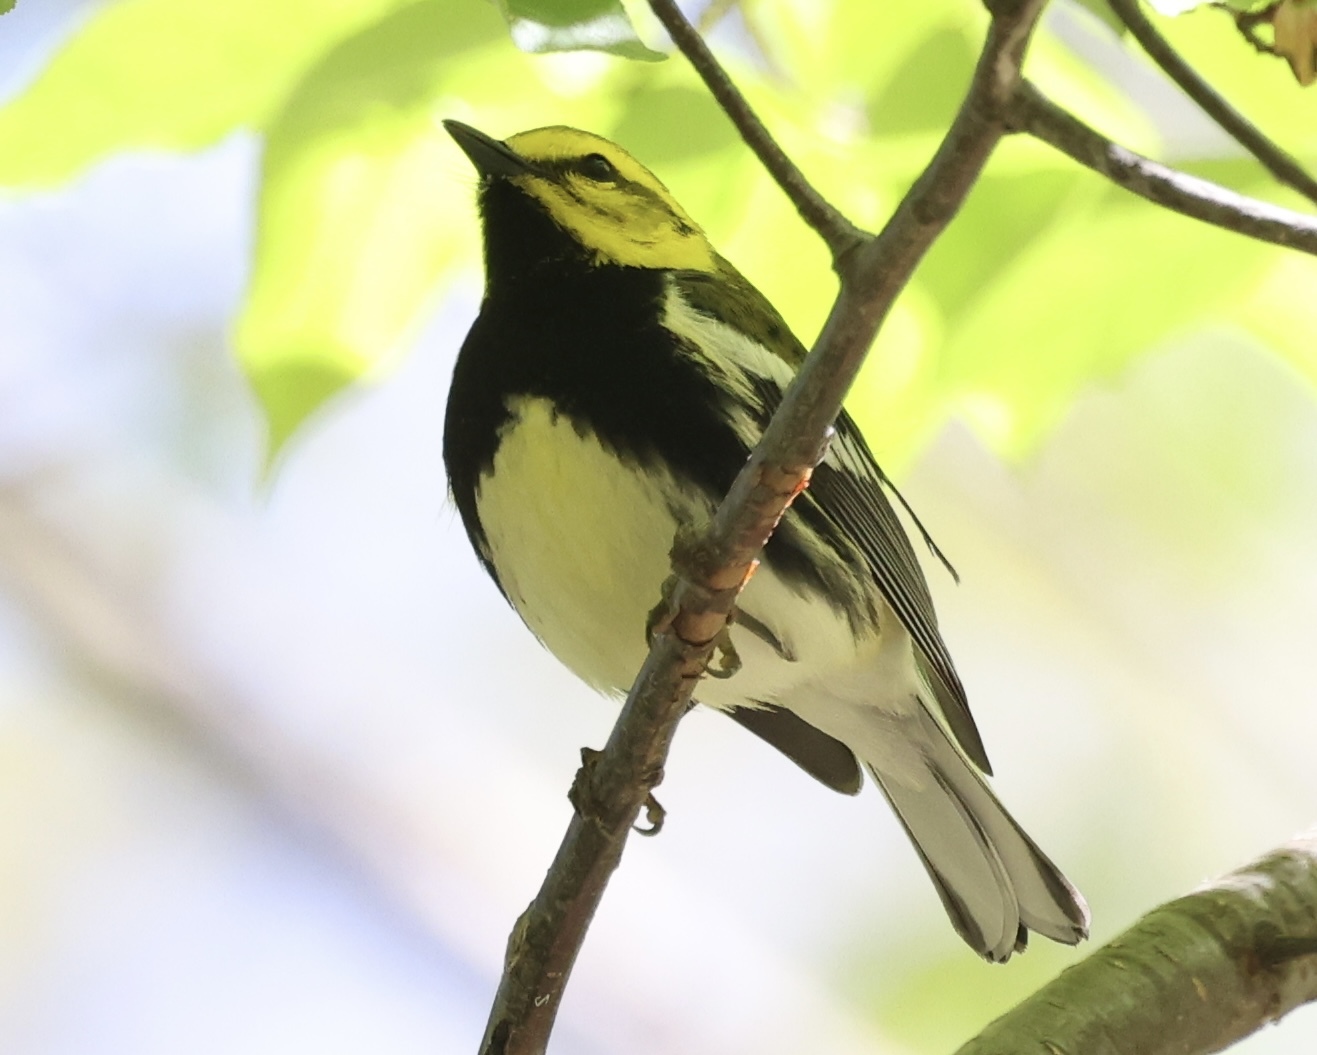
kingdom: Animalia
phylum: Chordata
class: Aves
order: Passeriformes
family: Parulidae
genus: Setophaga
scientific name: Setophaga virens
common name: Black-throated green warbler
